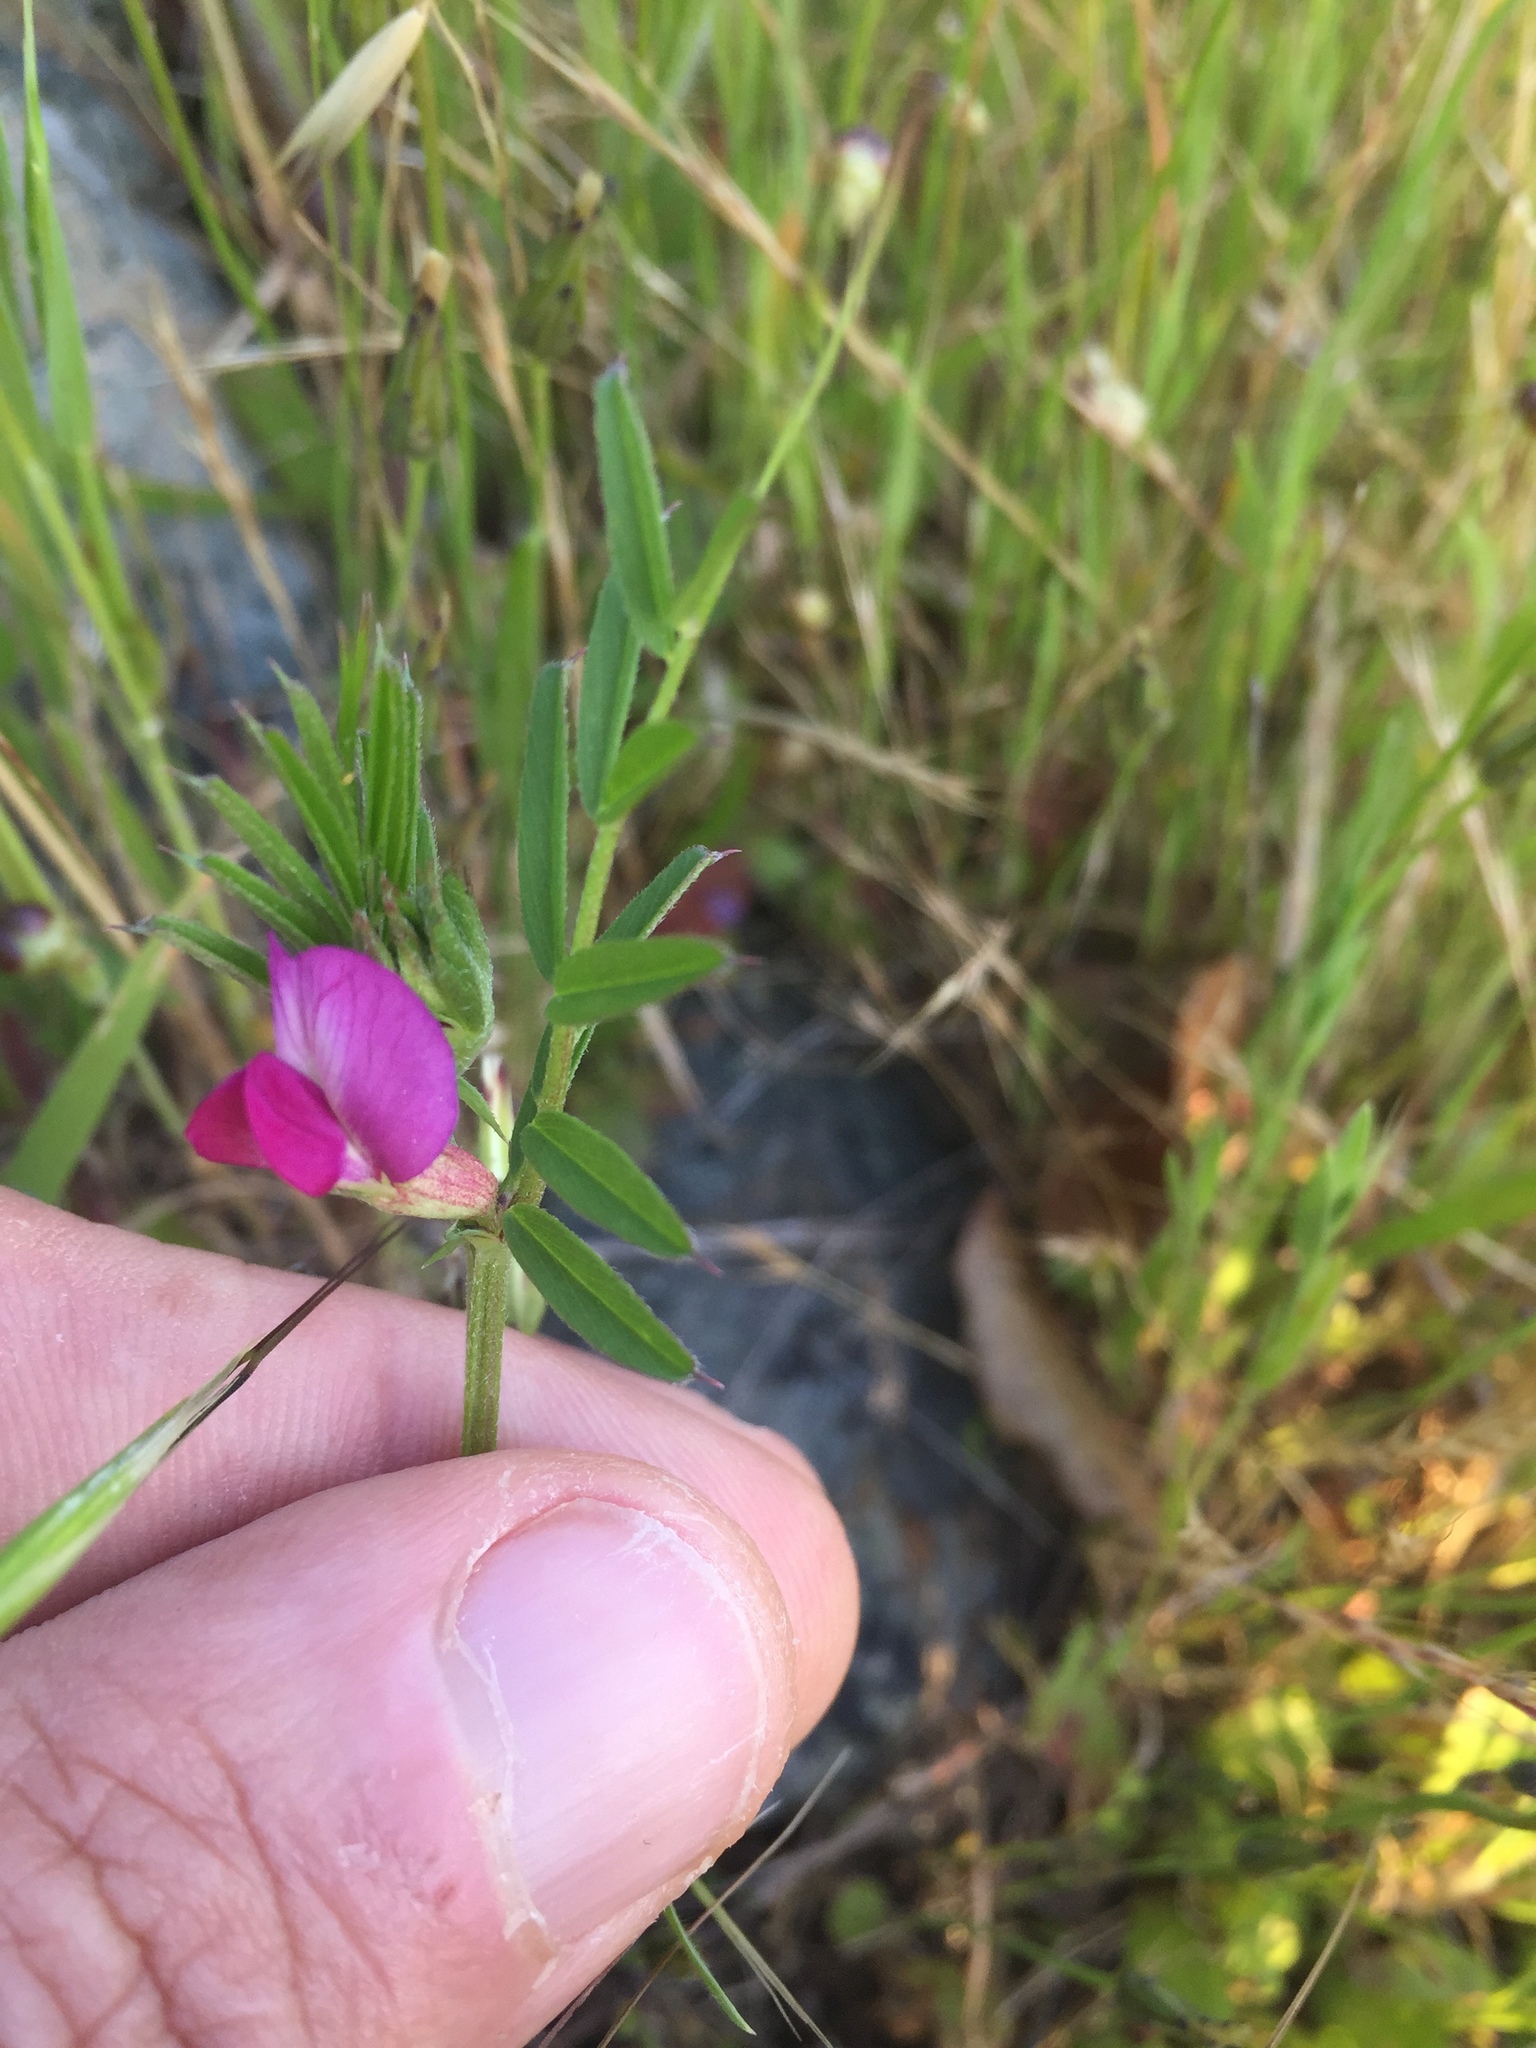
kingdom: Plantae
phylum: Tracheophyta
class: Magnoliopsida
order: Fabales
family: Fabaceae
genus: Vicia
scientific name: Vicia sativa
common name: Garden vetch
